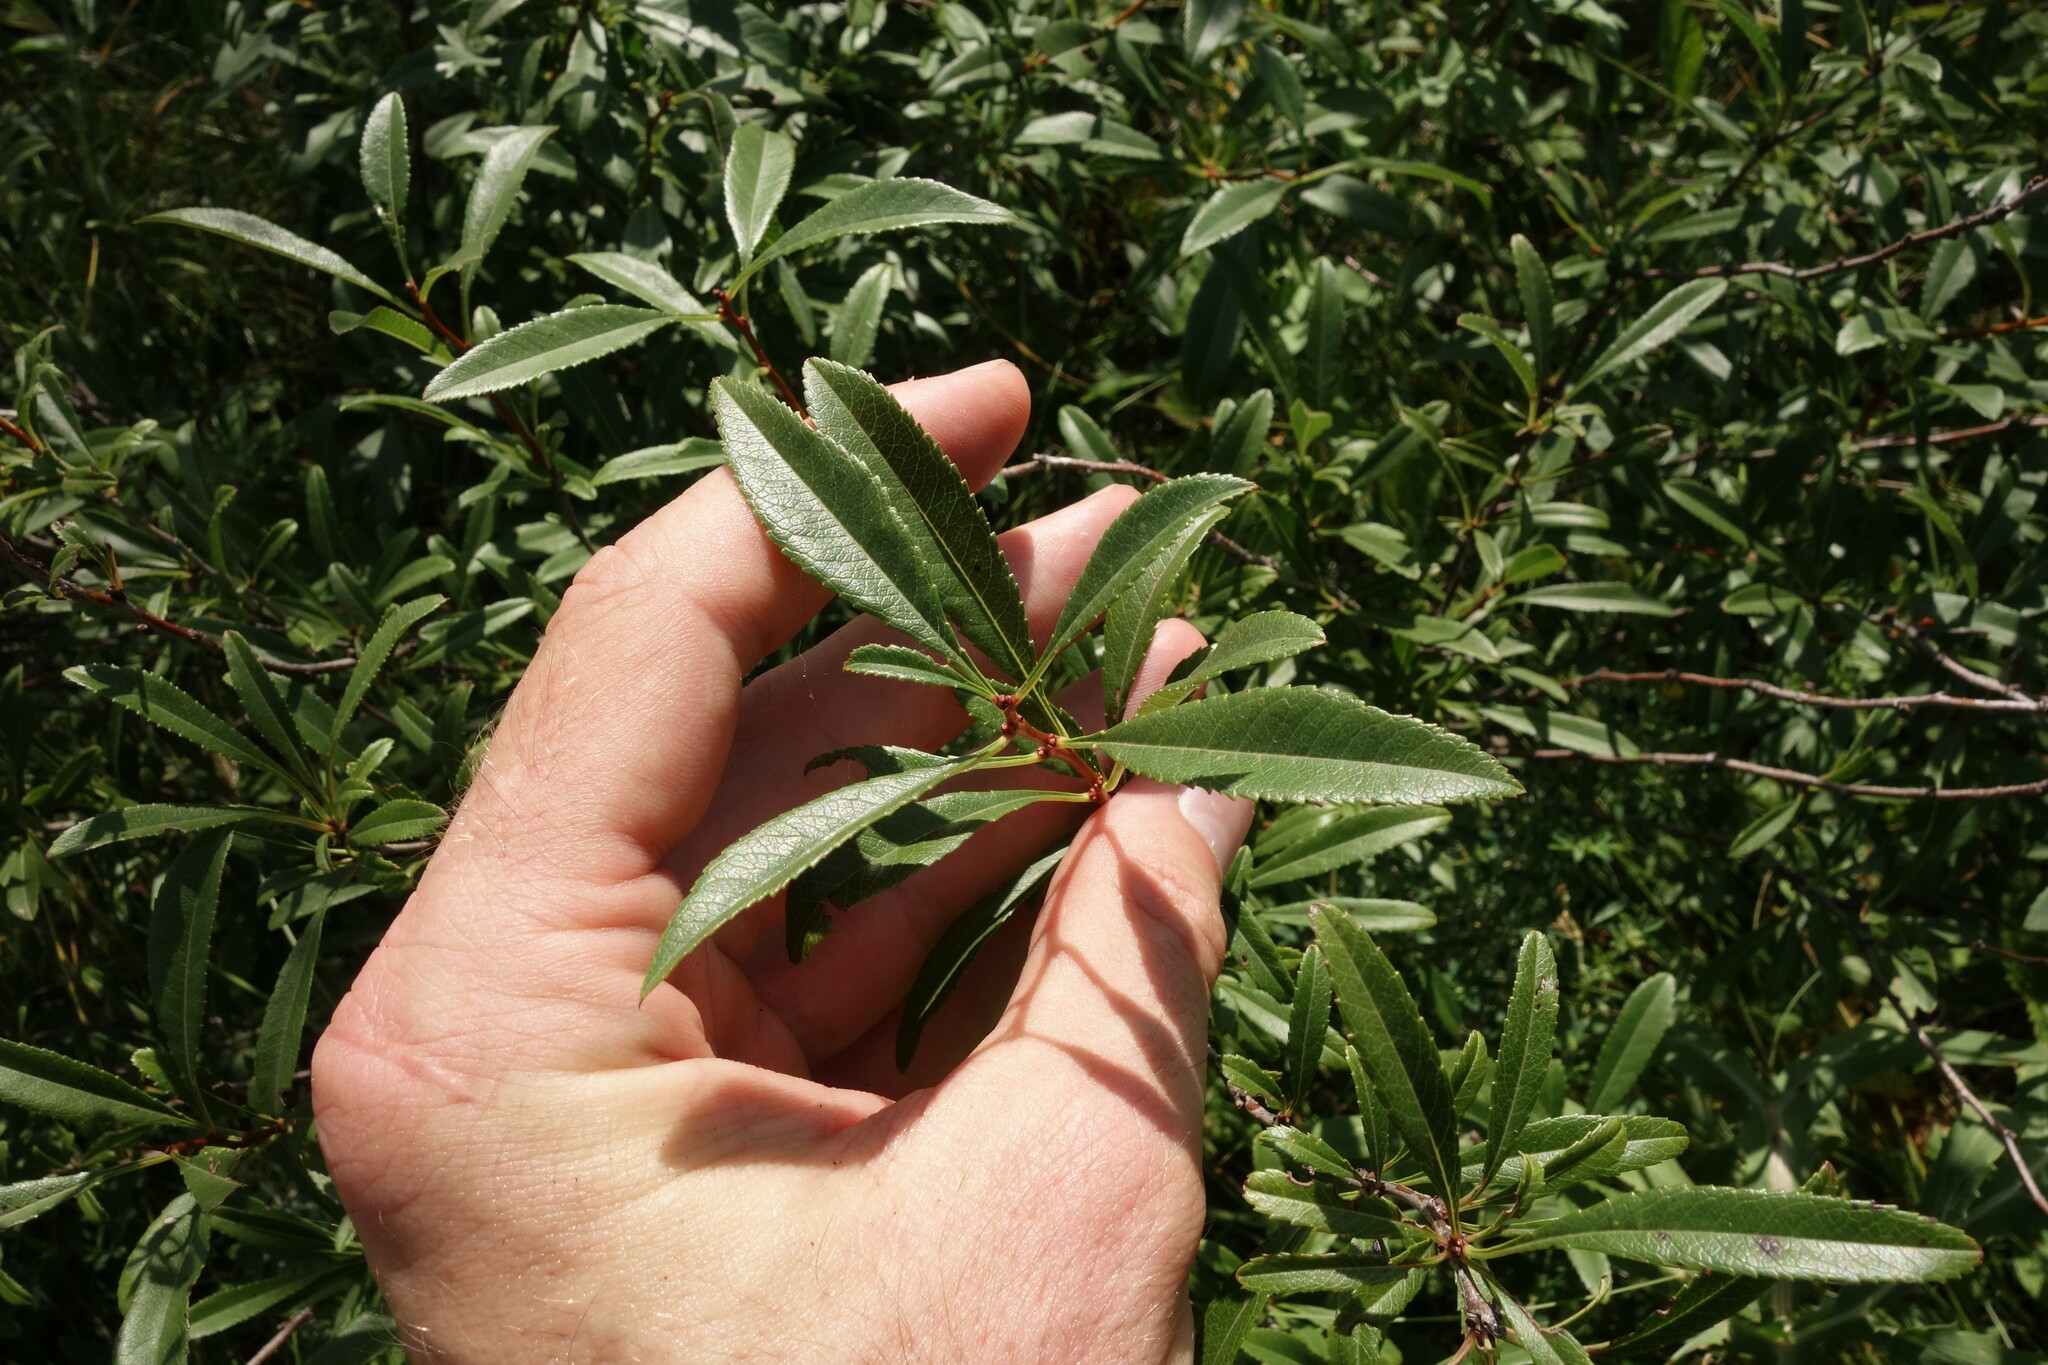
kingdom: Plantae
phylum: Tracheophyta
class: Magnoliopsida
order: Rosales
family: Rosaceae
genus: Prunus
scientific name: Prunus tenella
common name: Dwarf russian almond
